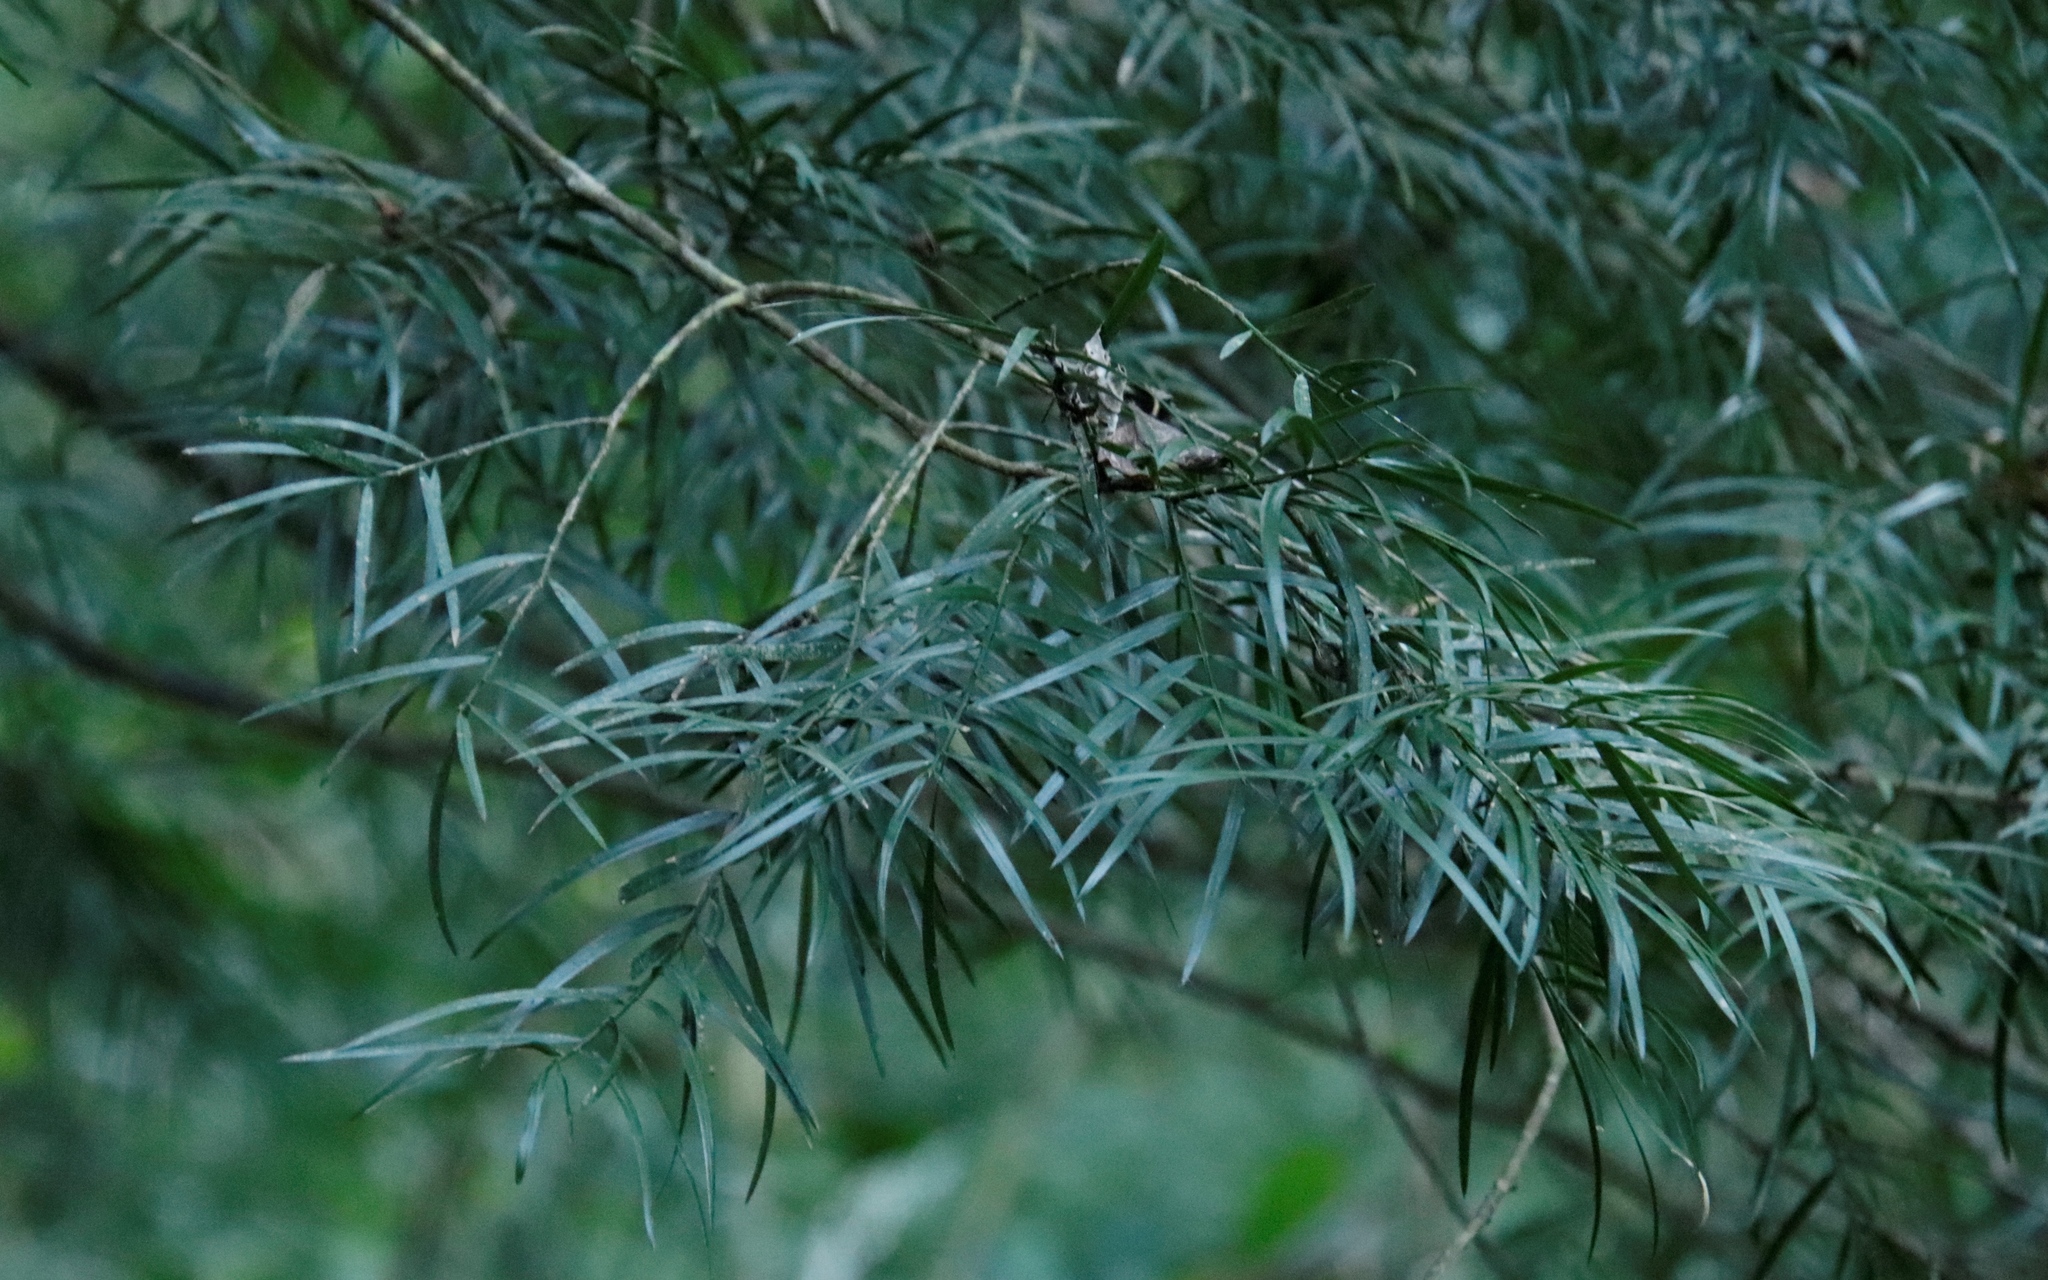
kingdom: Plantae
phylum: Tracheophyta
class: Liliopsida
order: Asparagales
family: Asparagaceae
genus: Asparagus
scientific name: Asparagus falcatus
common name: Asparagus
